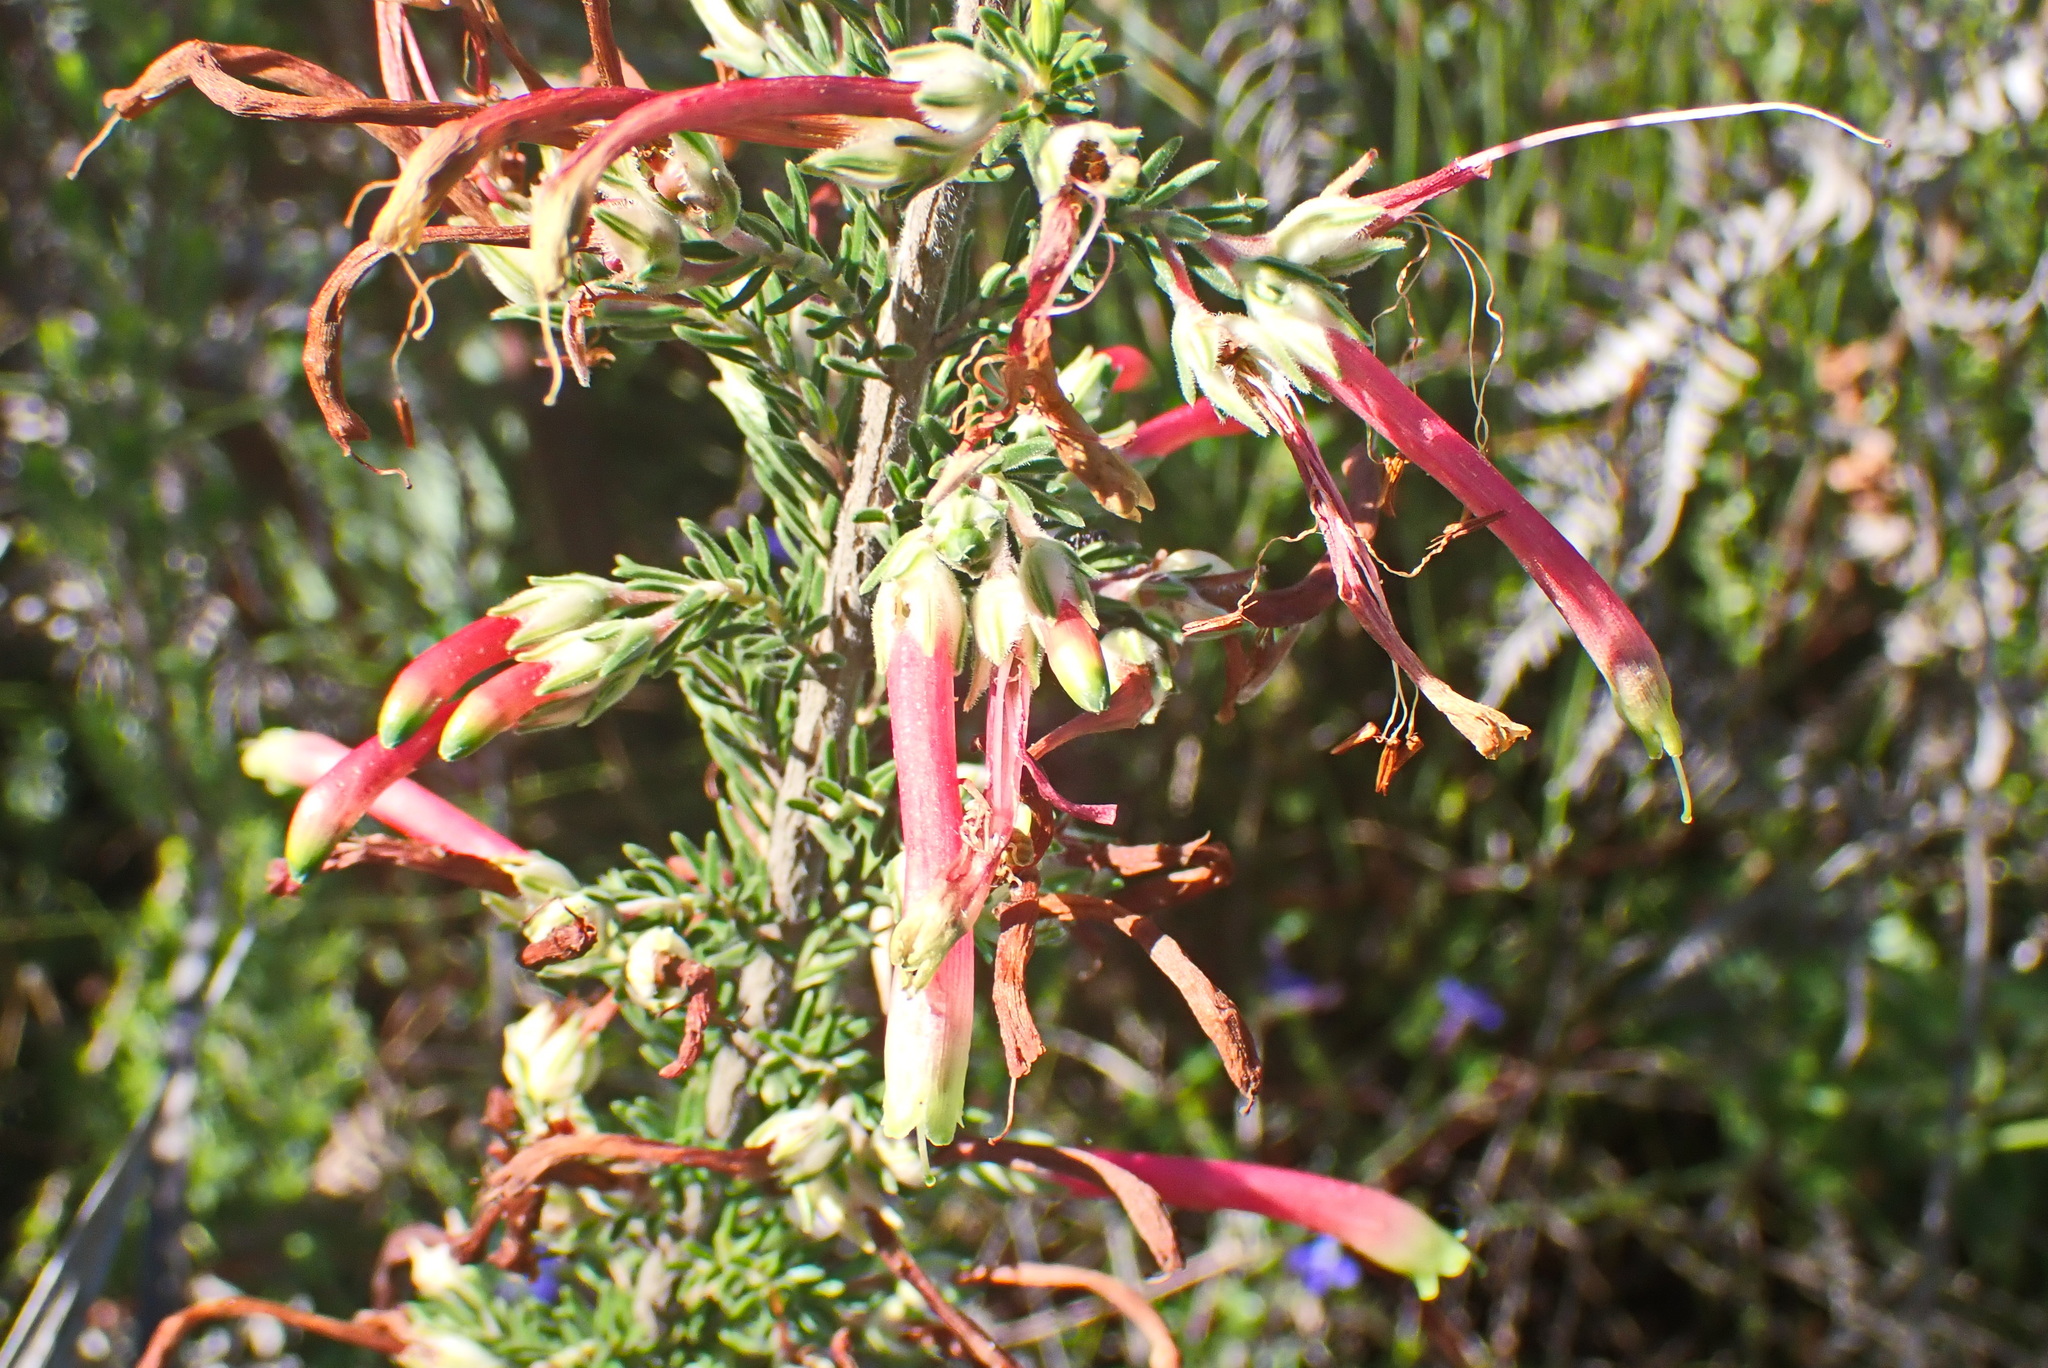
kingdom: Plantae
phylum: Tracheophyta
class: Magnoliopsida
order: Ericales
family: Ericaceae
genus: Erica
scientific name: Erica discolor
